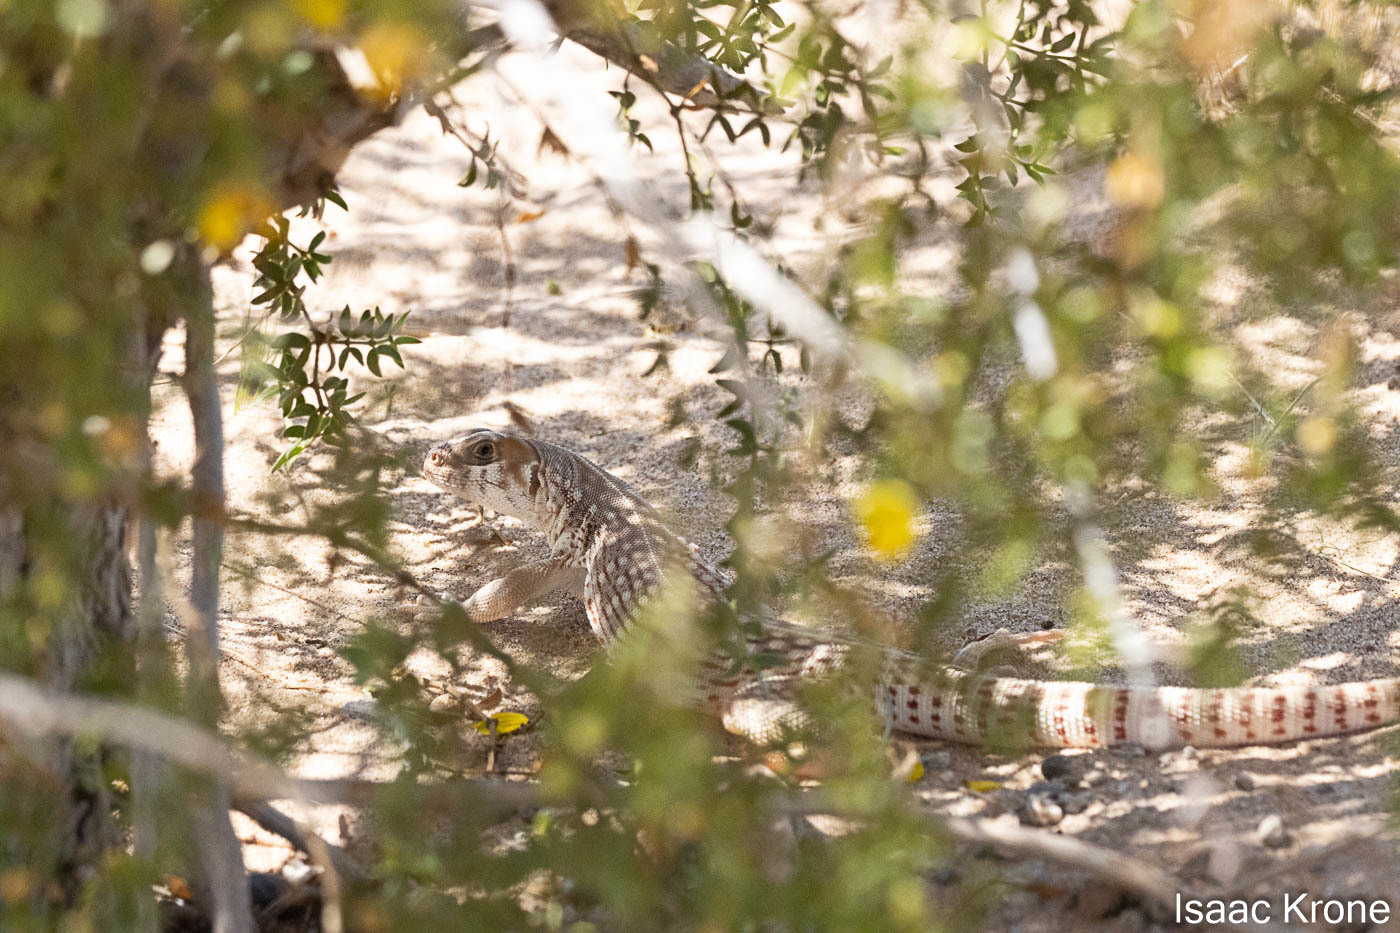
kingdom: Animalia
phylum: Chordata
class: Squamata
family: Iguanidae
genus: Dipsosaurus
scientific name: Dipsosaurus dorsalis
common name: Desert iguana
